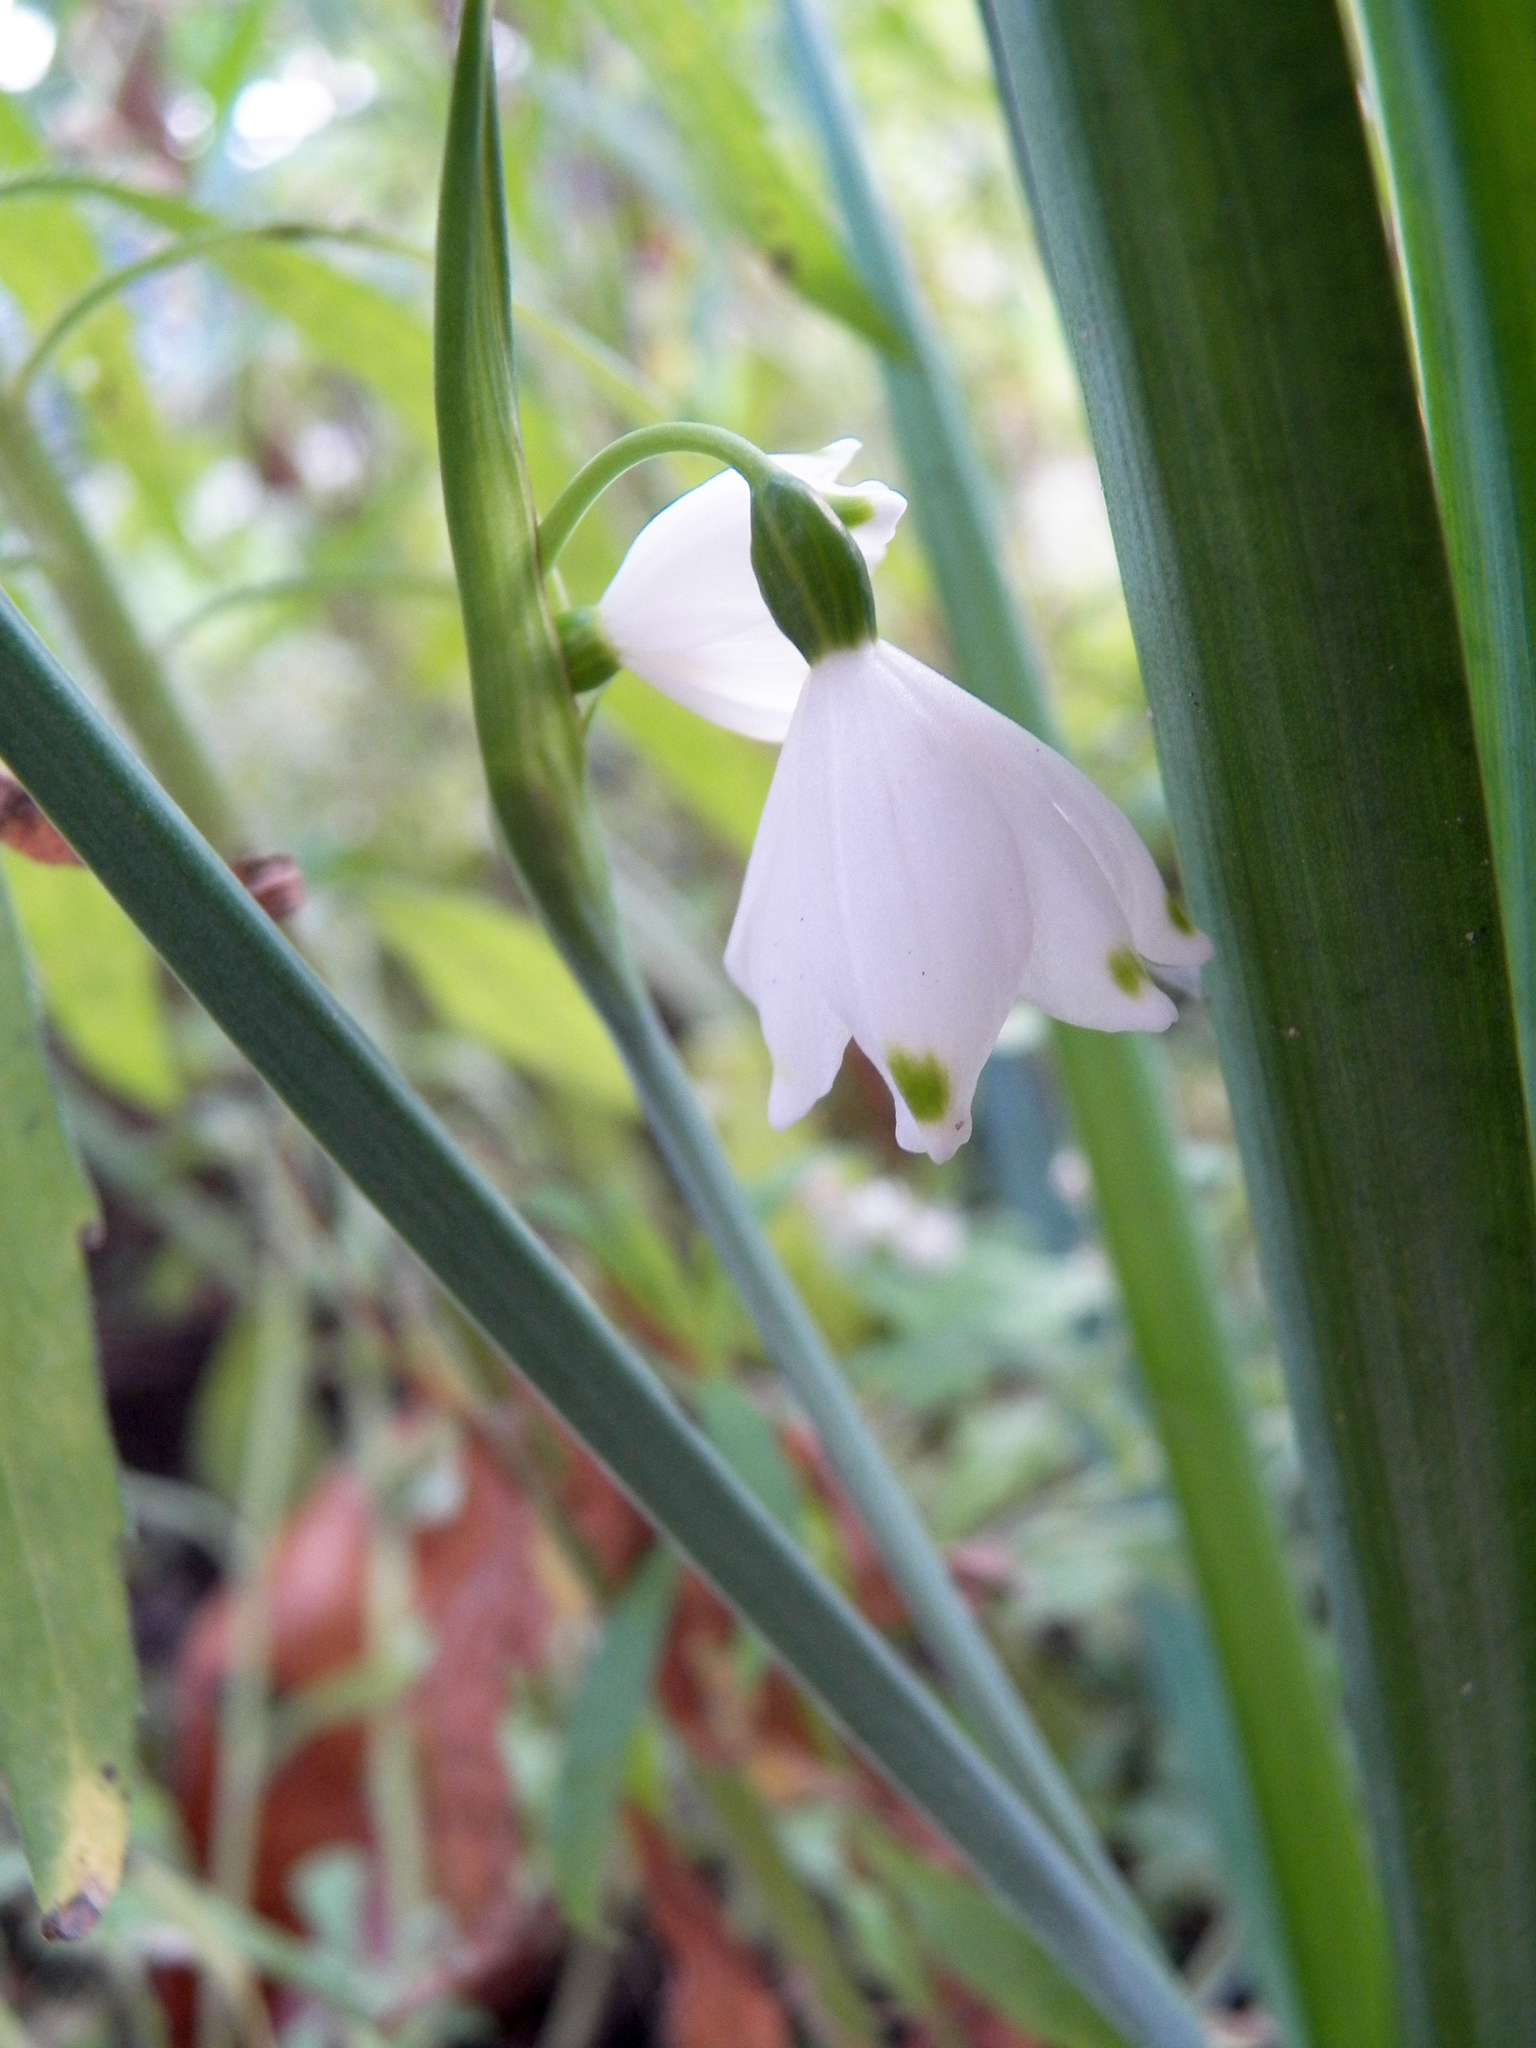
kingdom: Plantae
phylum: Tracheophyta
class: Liliopsida
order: Asparagales
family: Amaryllidaceae
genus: Leucojum
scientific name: Leucojum aestivum
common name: Summer snowflake
